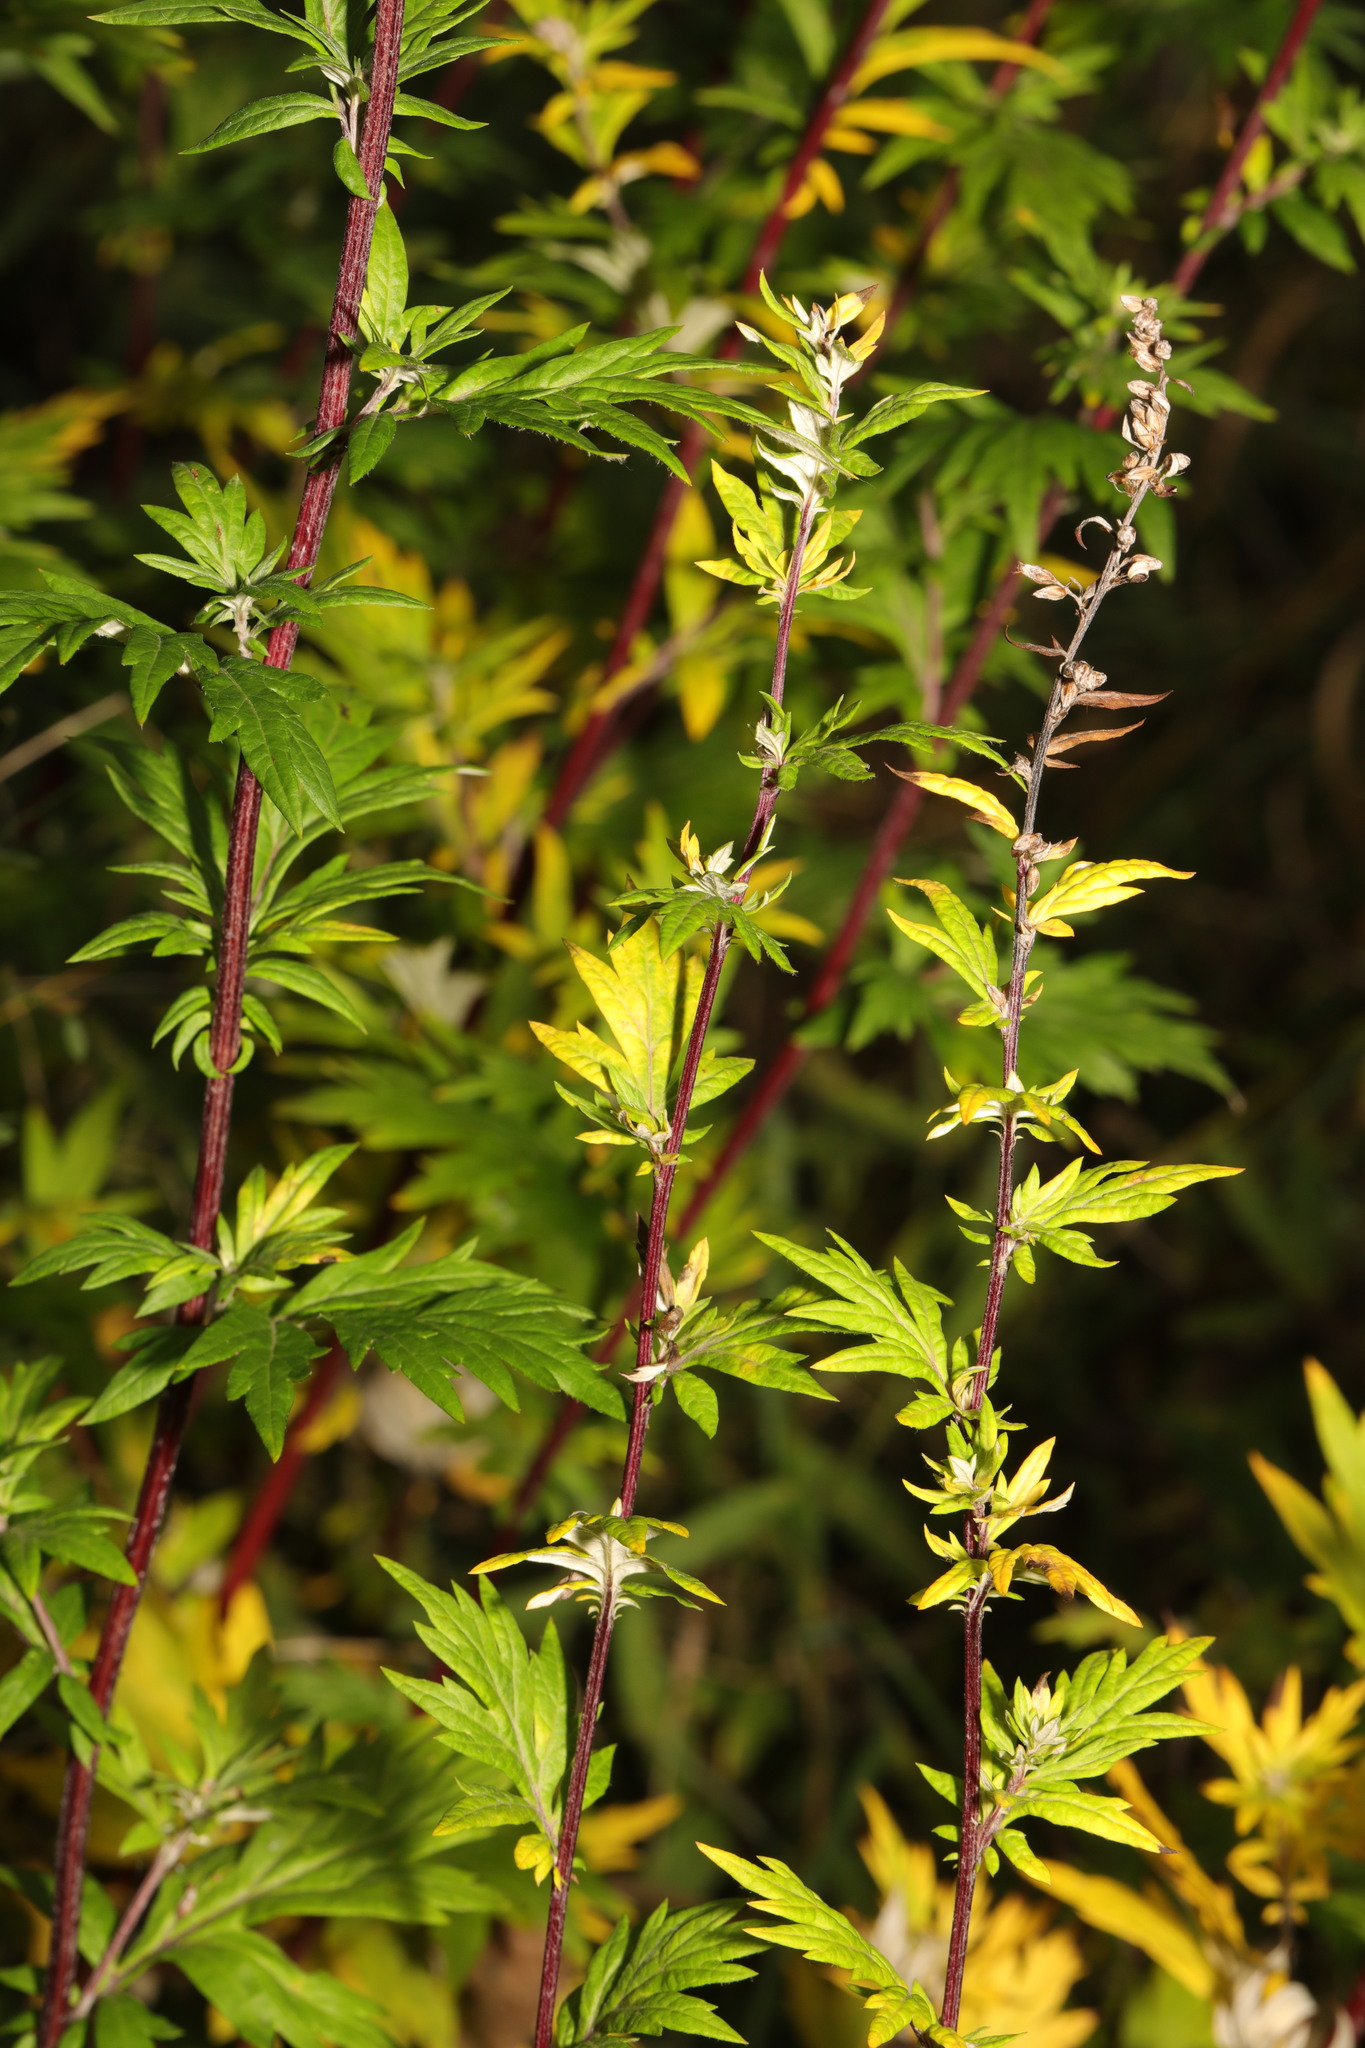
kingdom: Plantae
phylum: Tracheophyta
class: Magnoliopsida
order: Asterales
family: Asteraceae
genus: Artemisia
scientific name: Artemisia vulgaris
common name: Mugwort
